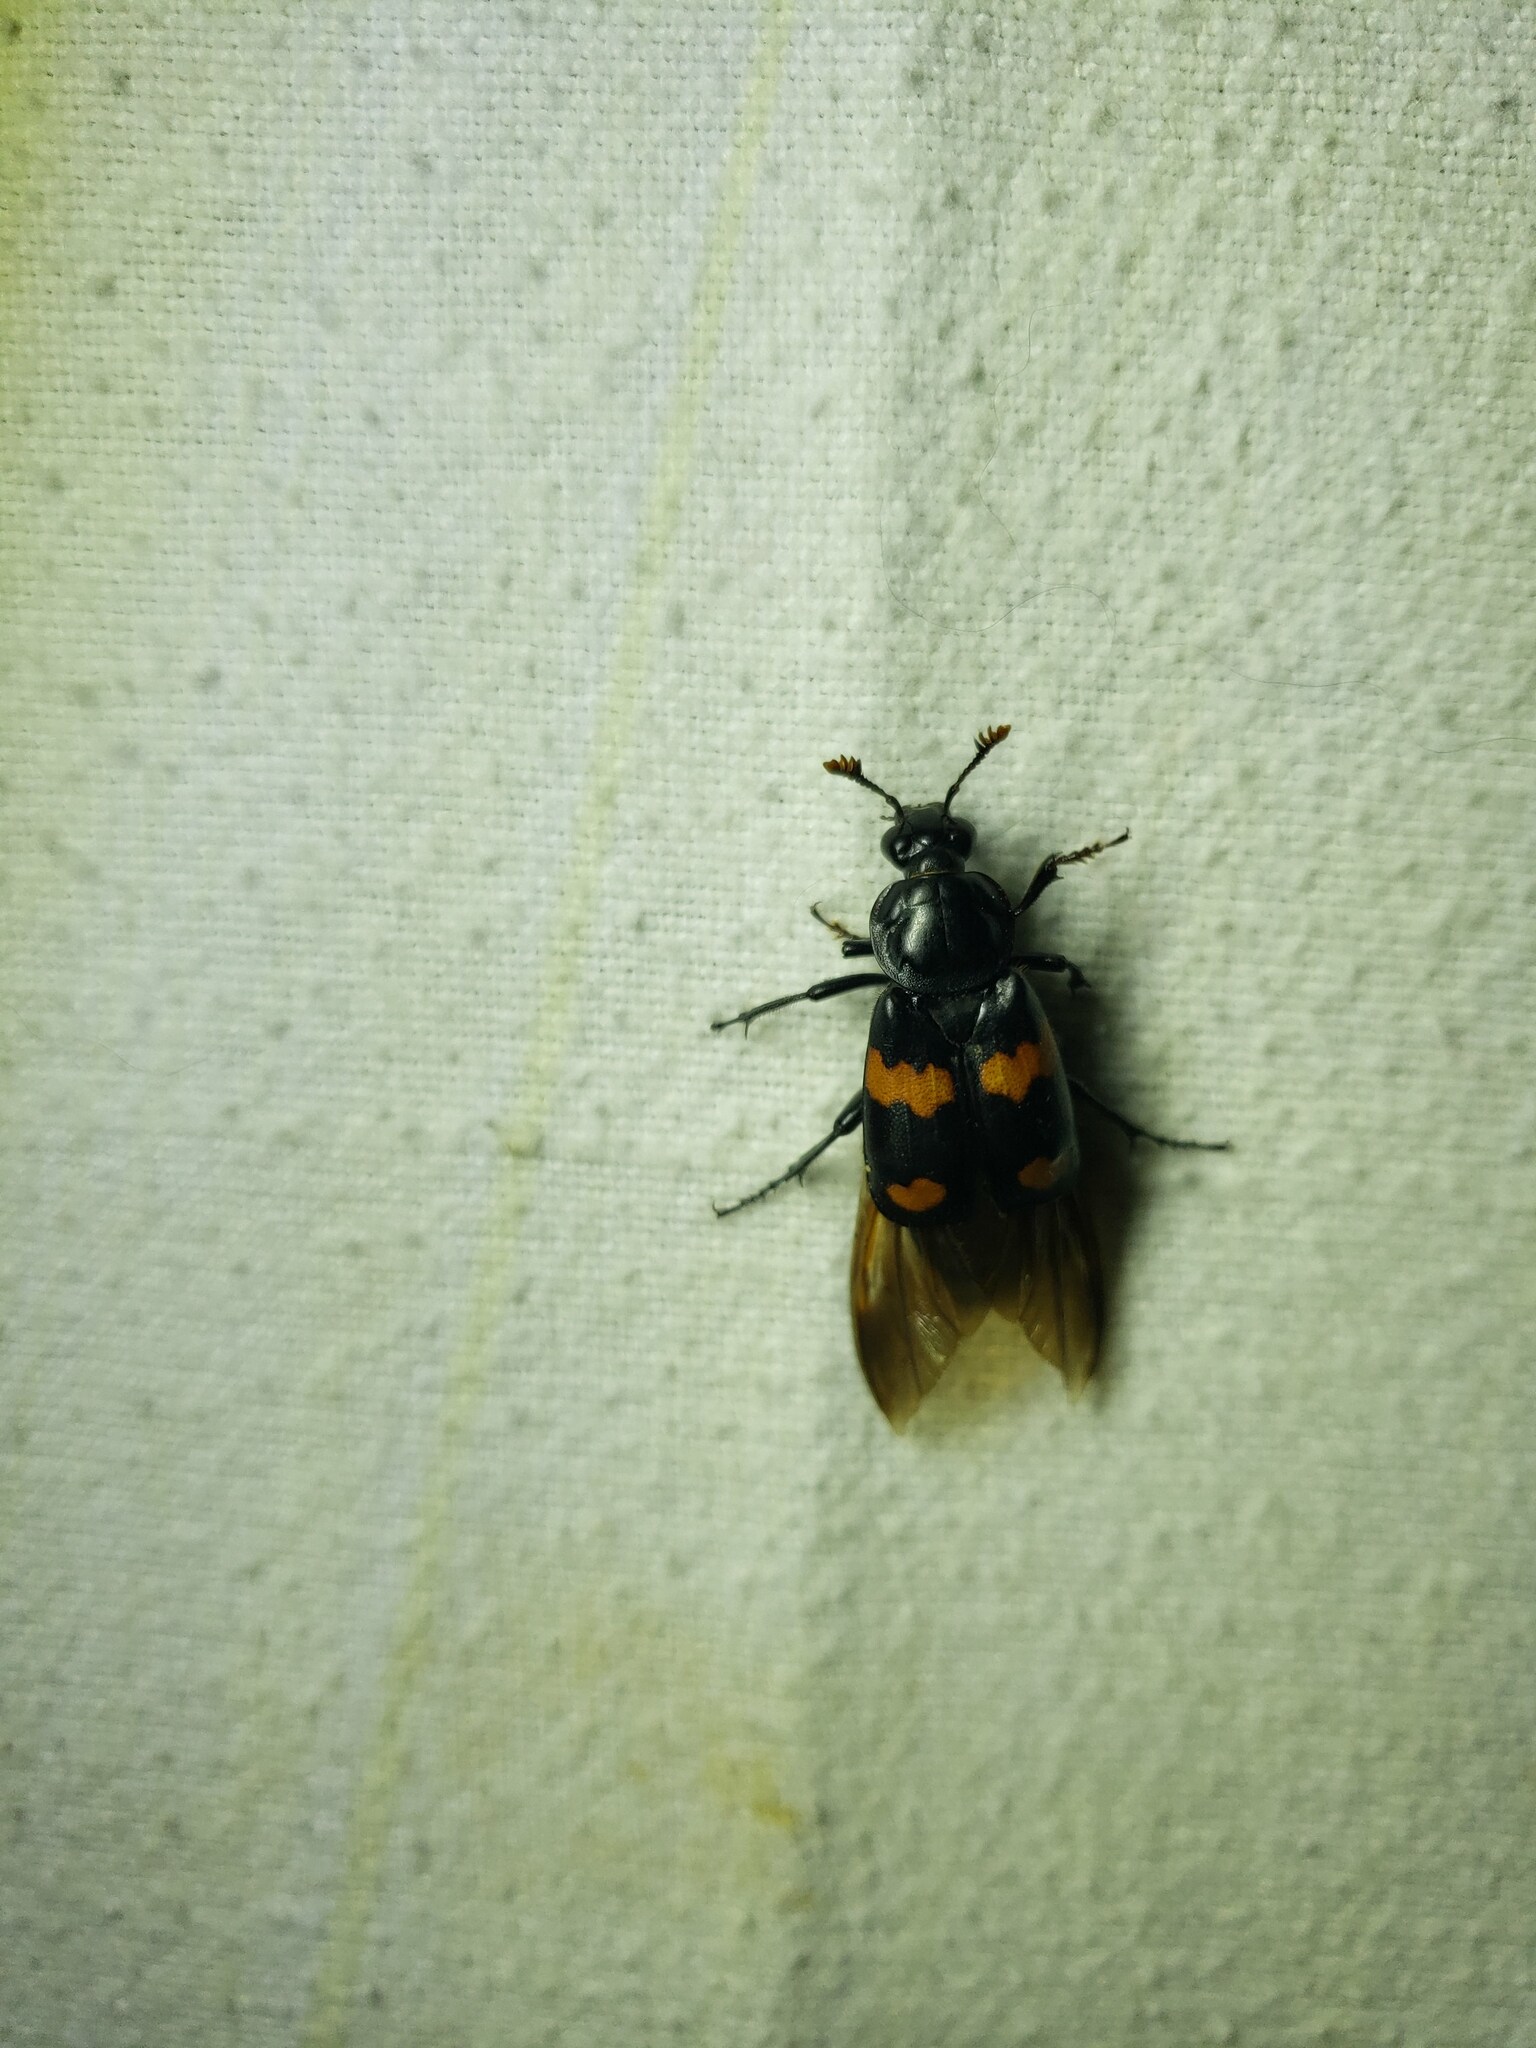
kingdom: Animalia
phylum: Arthropoda
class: Insecta
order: Coleoptera
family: Staphylinidae
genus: Nicrophorus
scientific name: Nicrophorus orbicollis
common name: Roundneck sexton beetle
